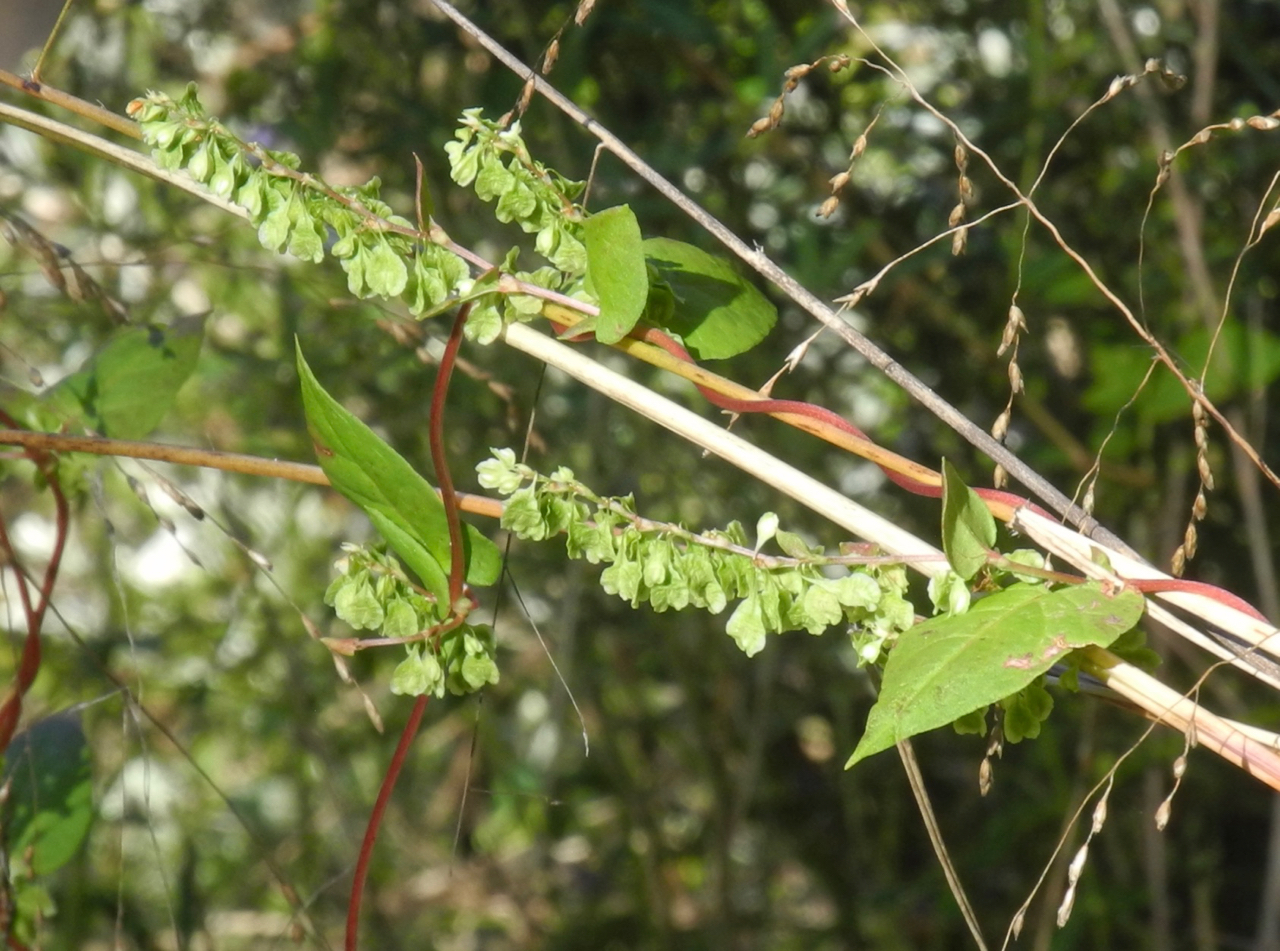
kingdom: Plantae
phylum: Tracheophyta
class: Magnoliopsida
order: Caryophyllales
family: Polygonaceae
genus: Fallopia
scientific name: Fallopia scandens
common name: Climbing false buckwheat
